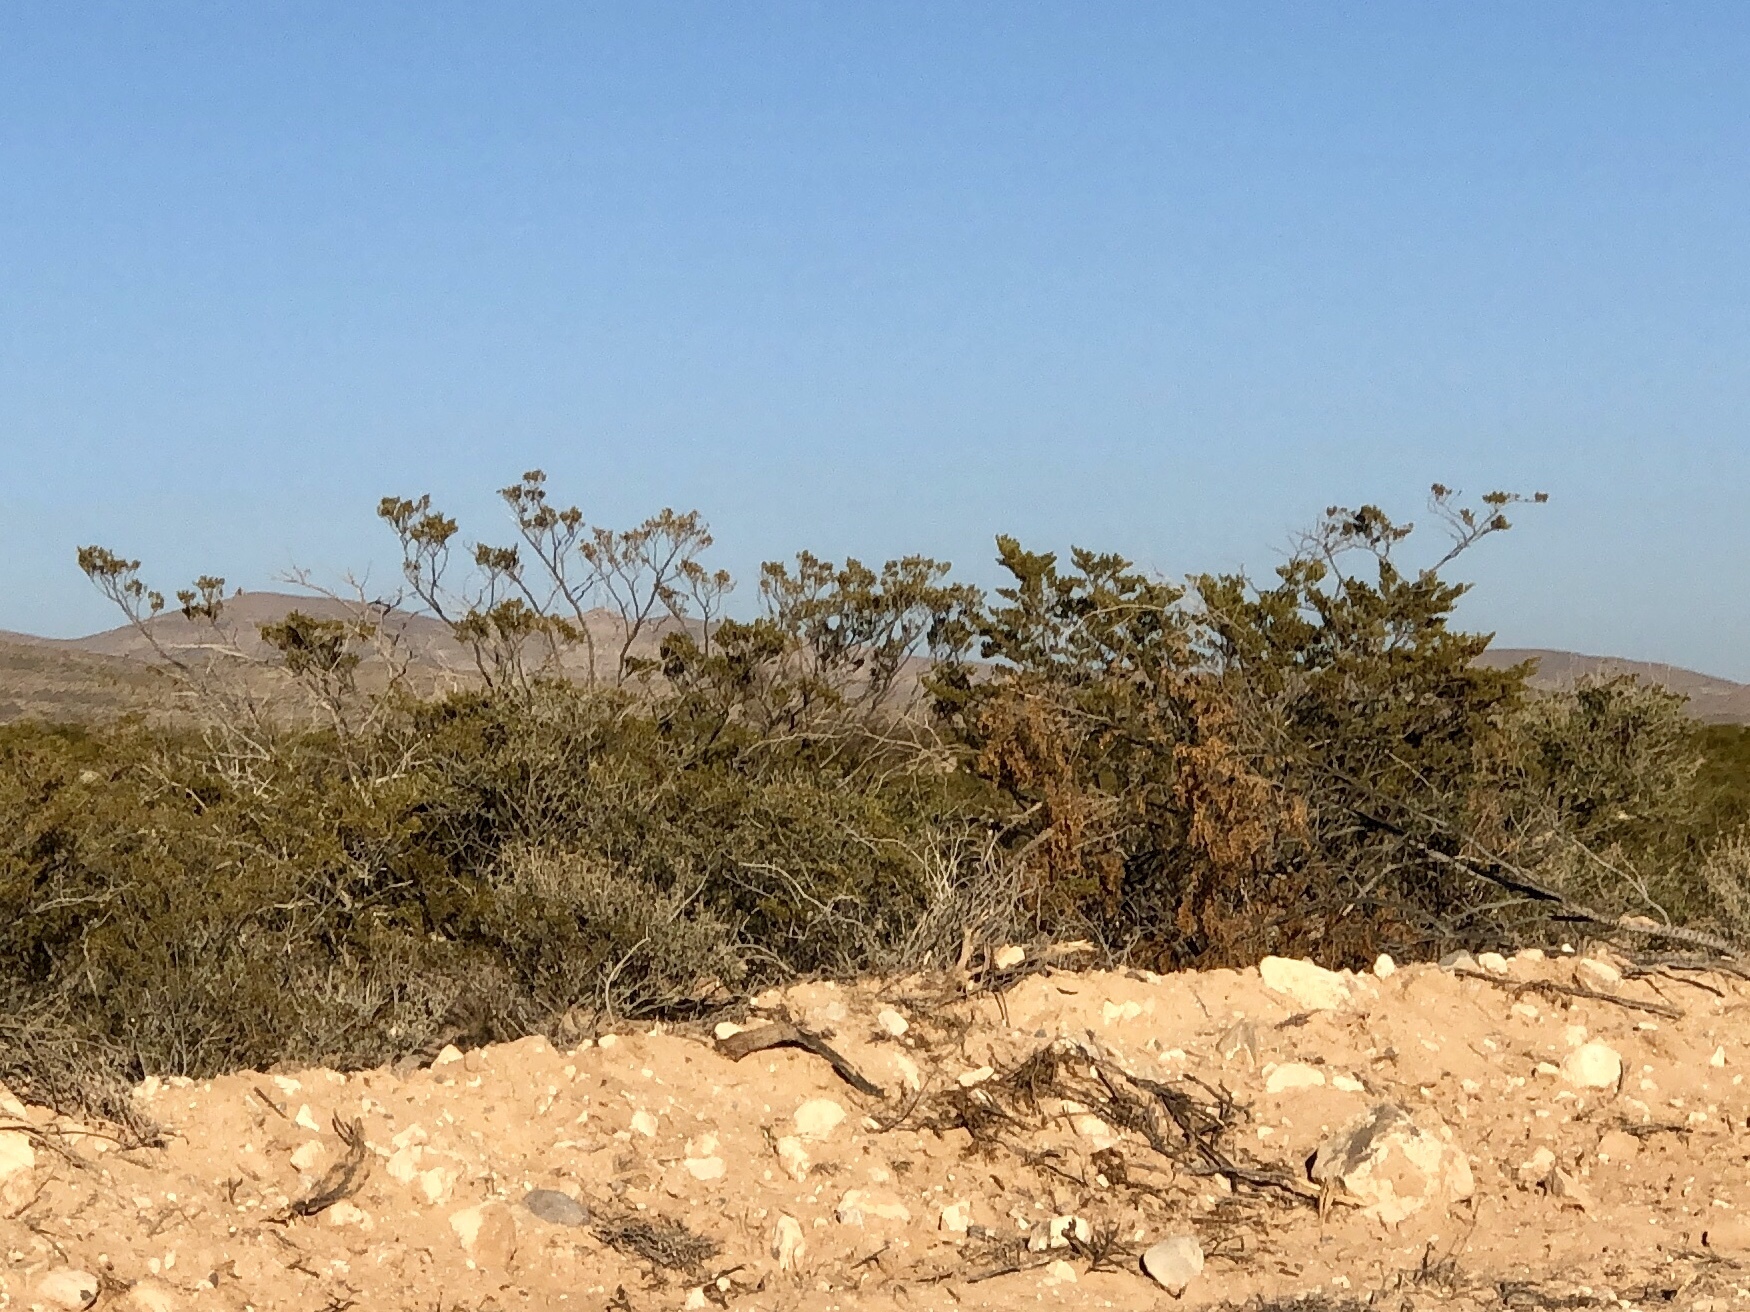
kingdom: Plantae
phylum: Tracheophyta
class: Magnoliopsida
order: Zygophyllales
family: Zygophyllaceae
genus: Larrea
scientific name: Larrea tridentata
